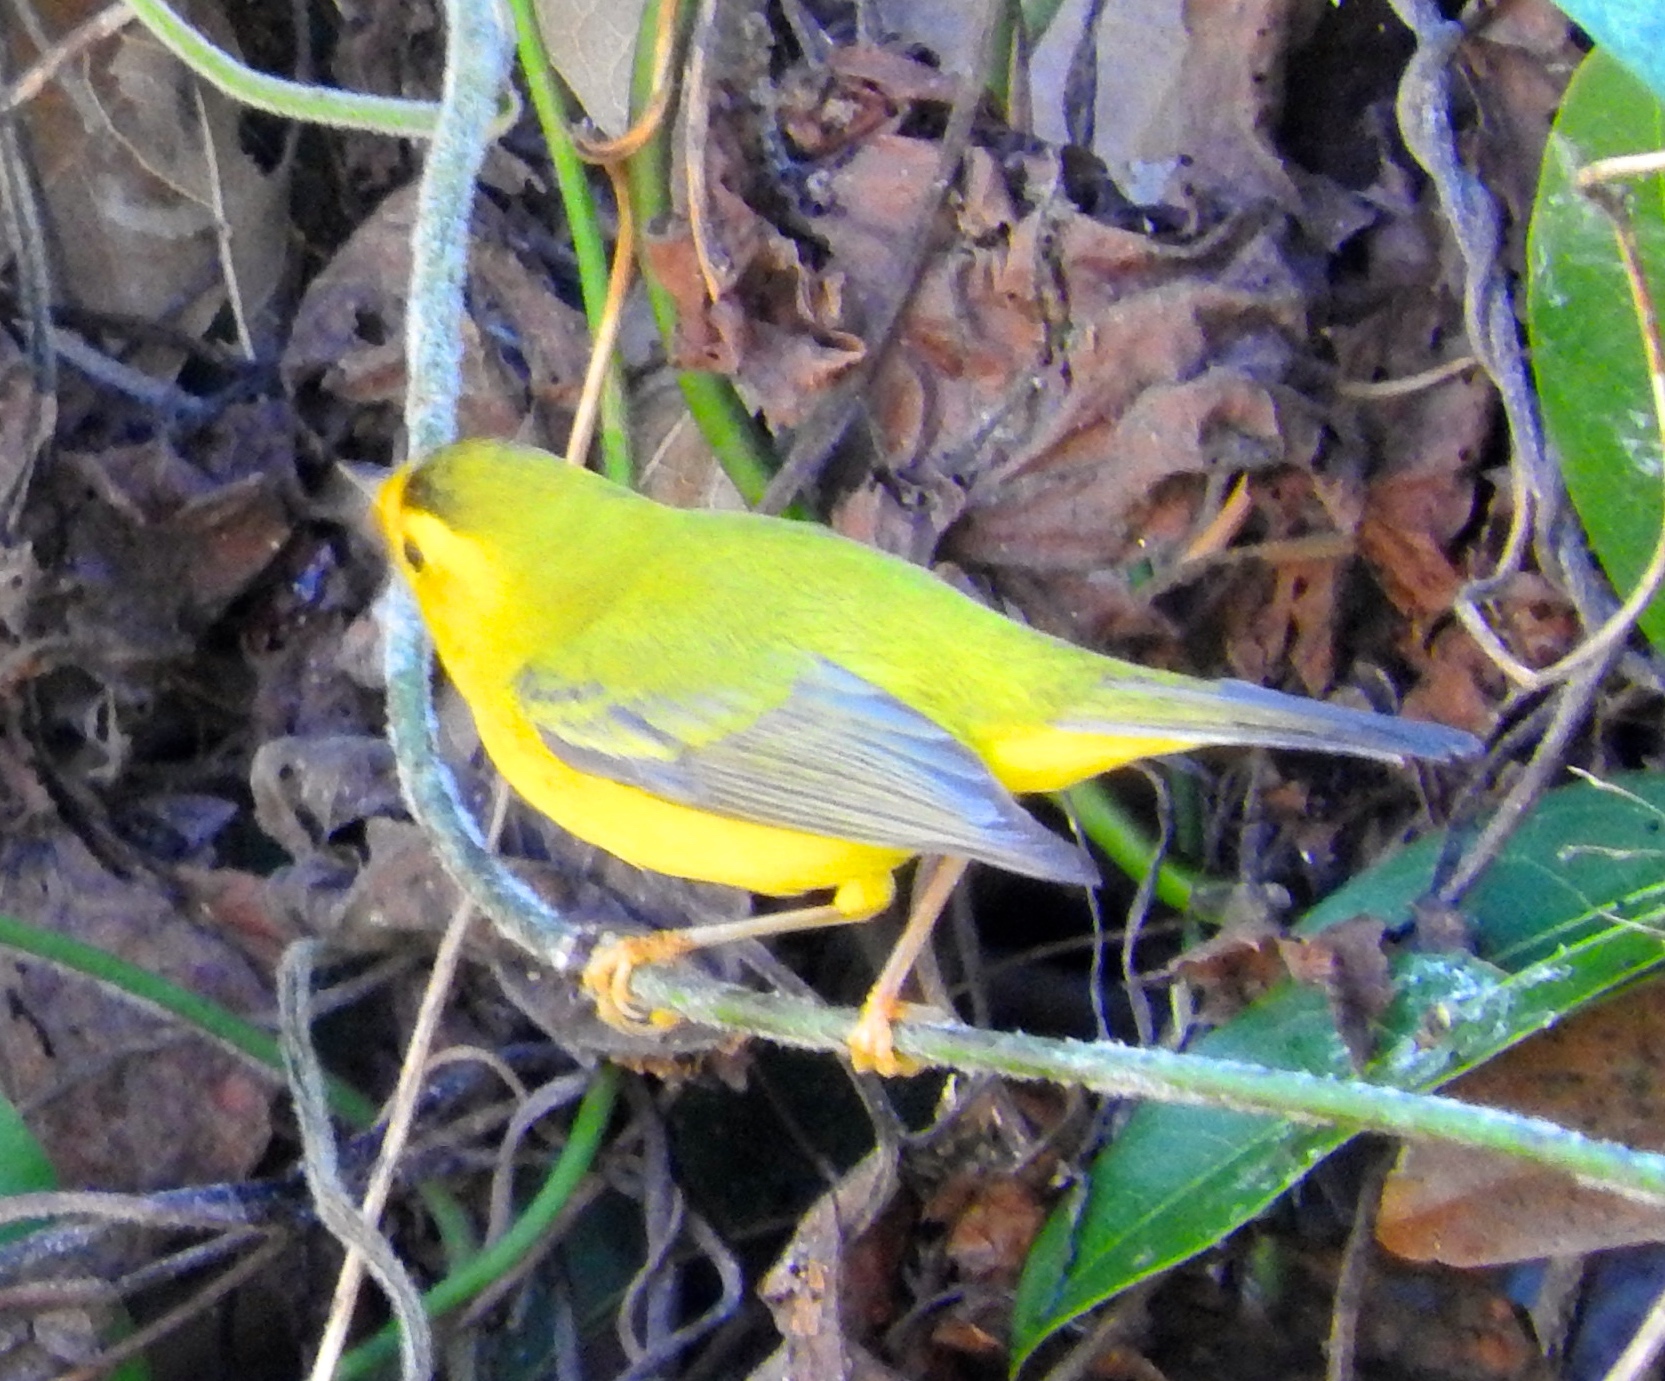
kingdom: Animalia
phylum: Chordata
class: Aves
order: Passeriformes
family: Parulidae
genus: Cardellina
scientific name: Cardellina pusilla
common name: Wilson's warbler
